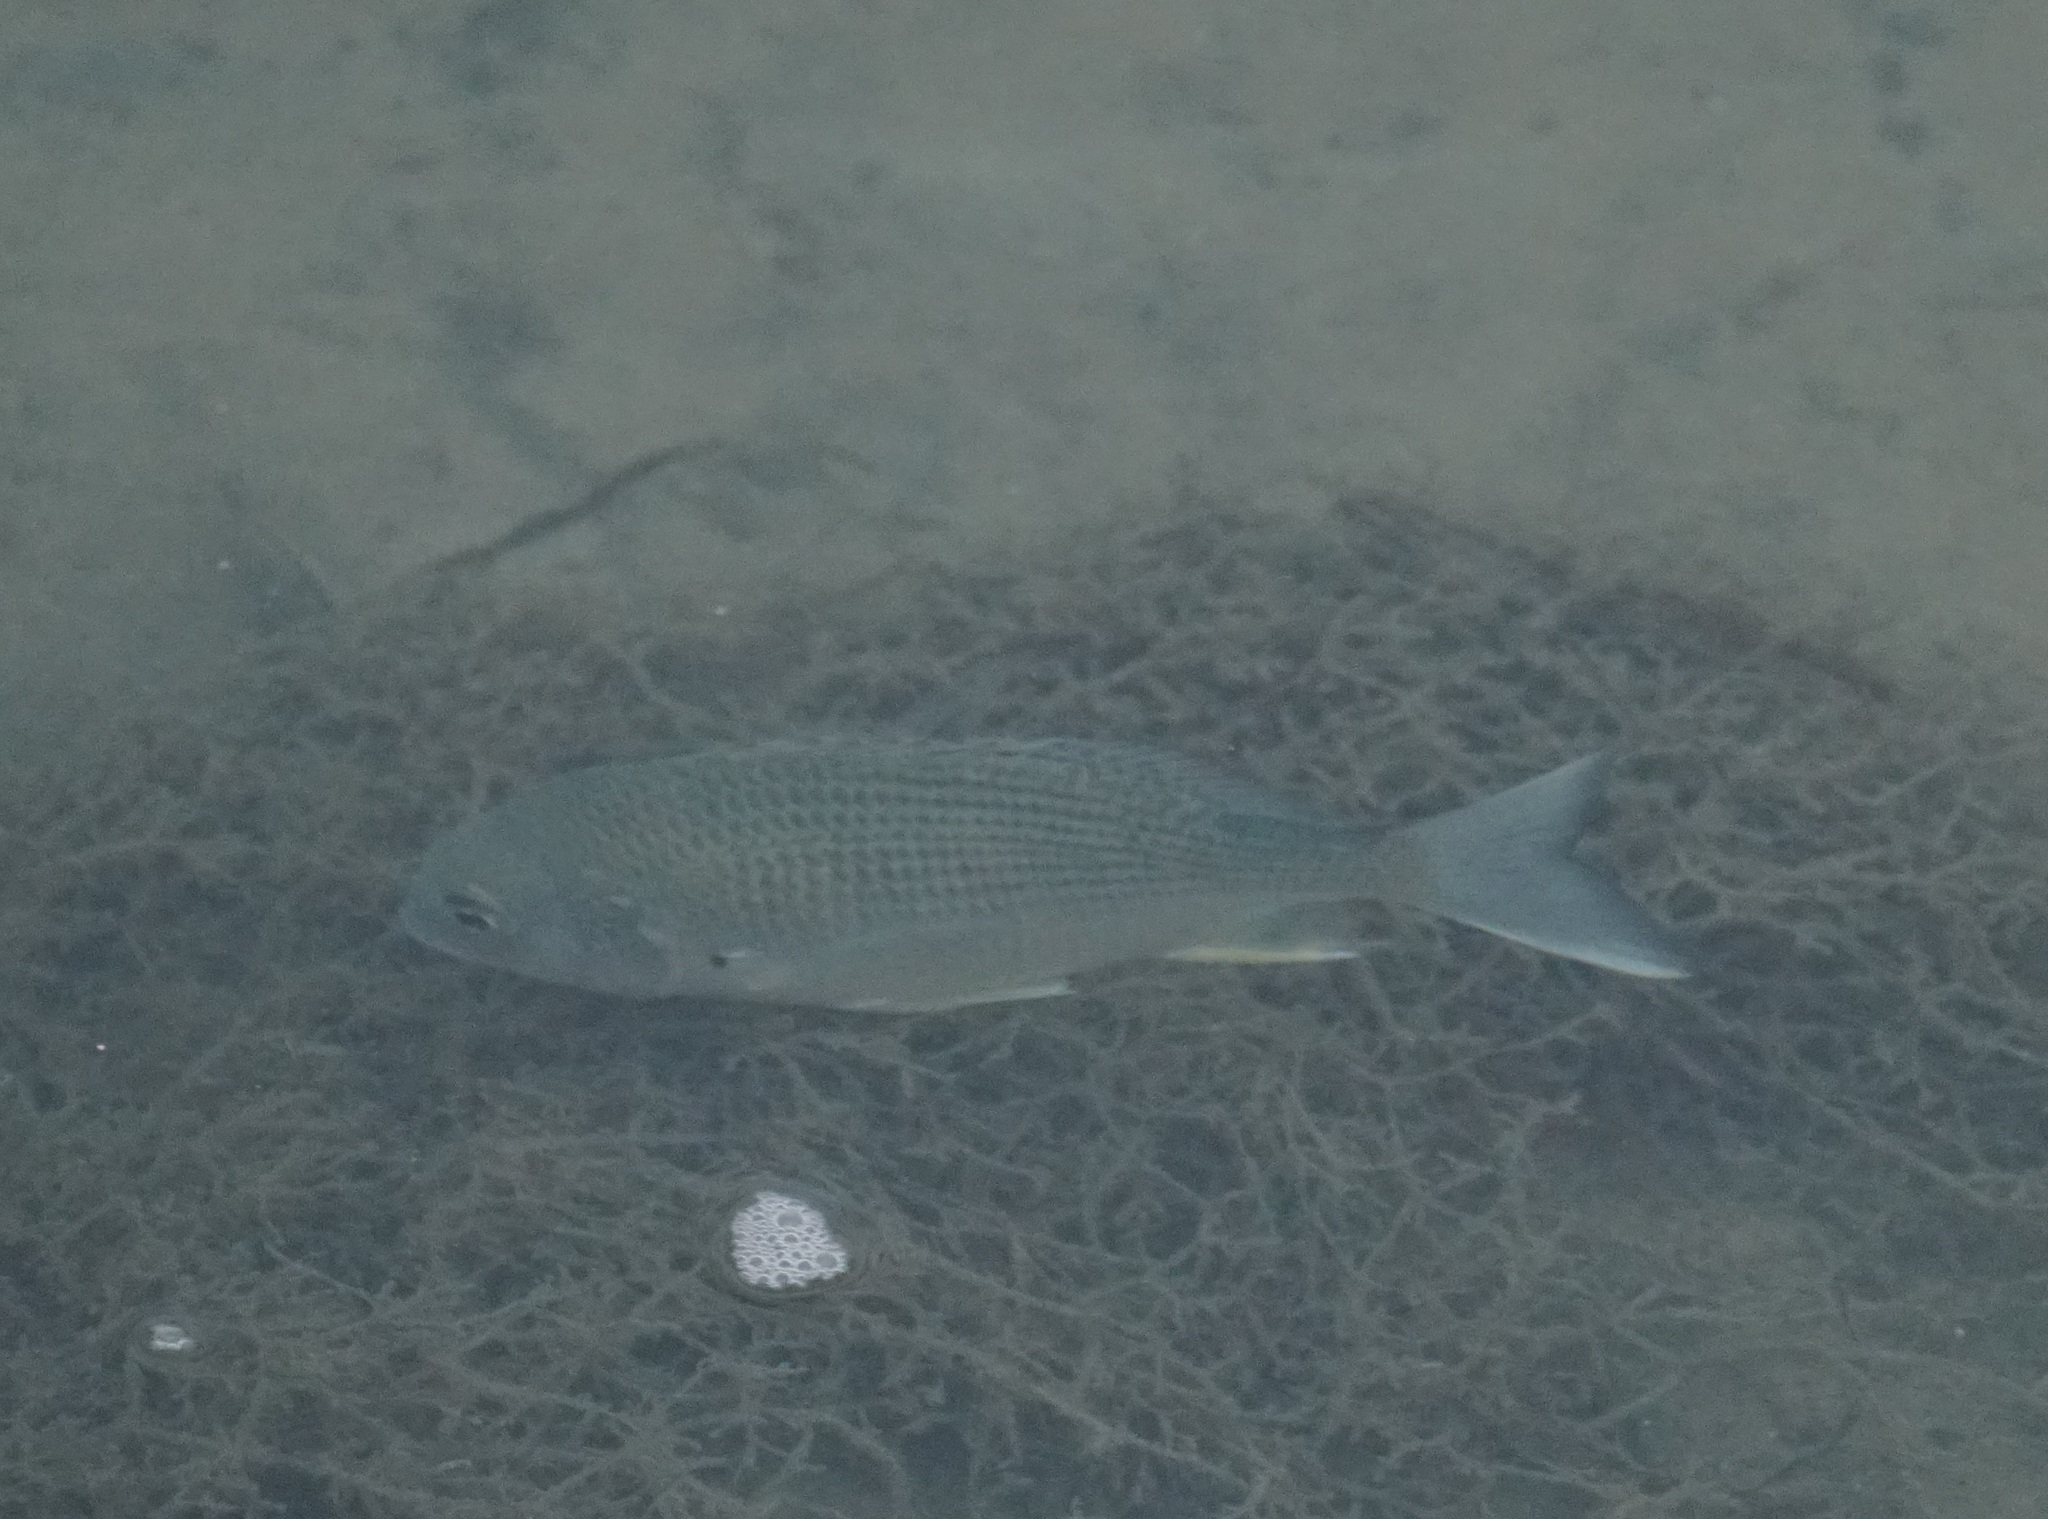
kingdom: Animalia
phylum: Chordata
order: Perciformes
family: Sparidae
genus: Acanthopagrus
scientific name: Acanthopagrus australis
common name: Surf bream
